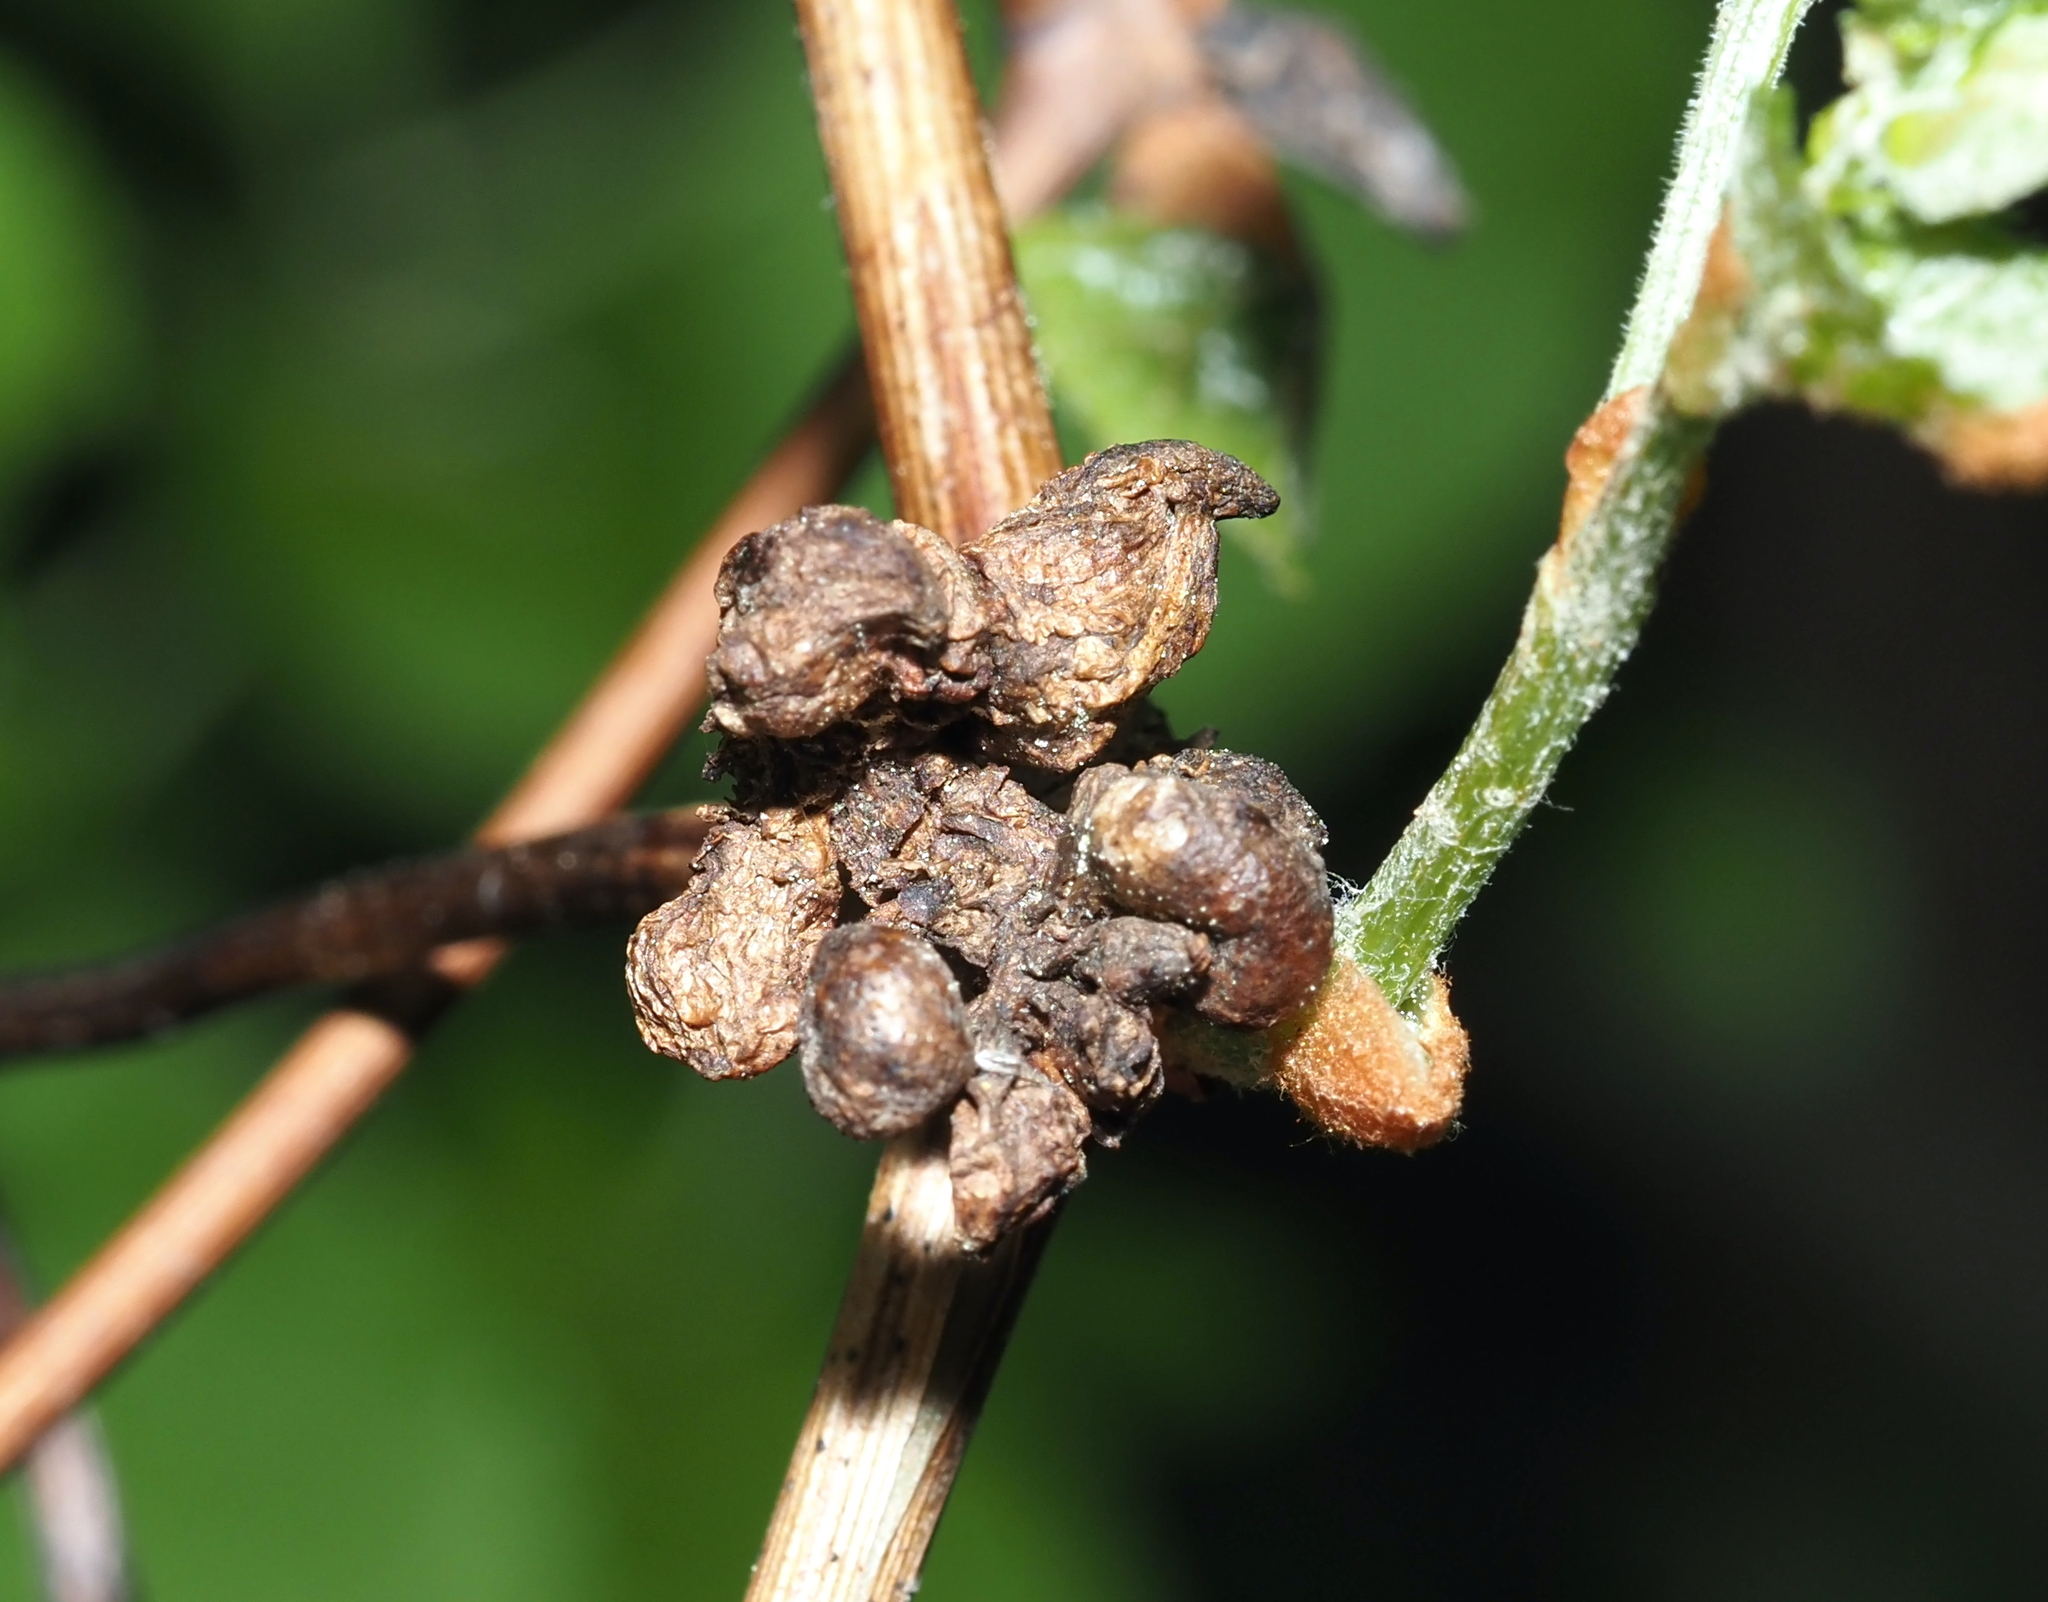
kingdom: Animalia
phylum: Arthropoda
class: Insecta
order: Diptera
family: Cecidomyiidae
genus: Ampelomyia
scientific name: Ampelomyia vitiscoryloides
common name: Grape filbert gall
